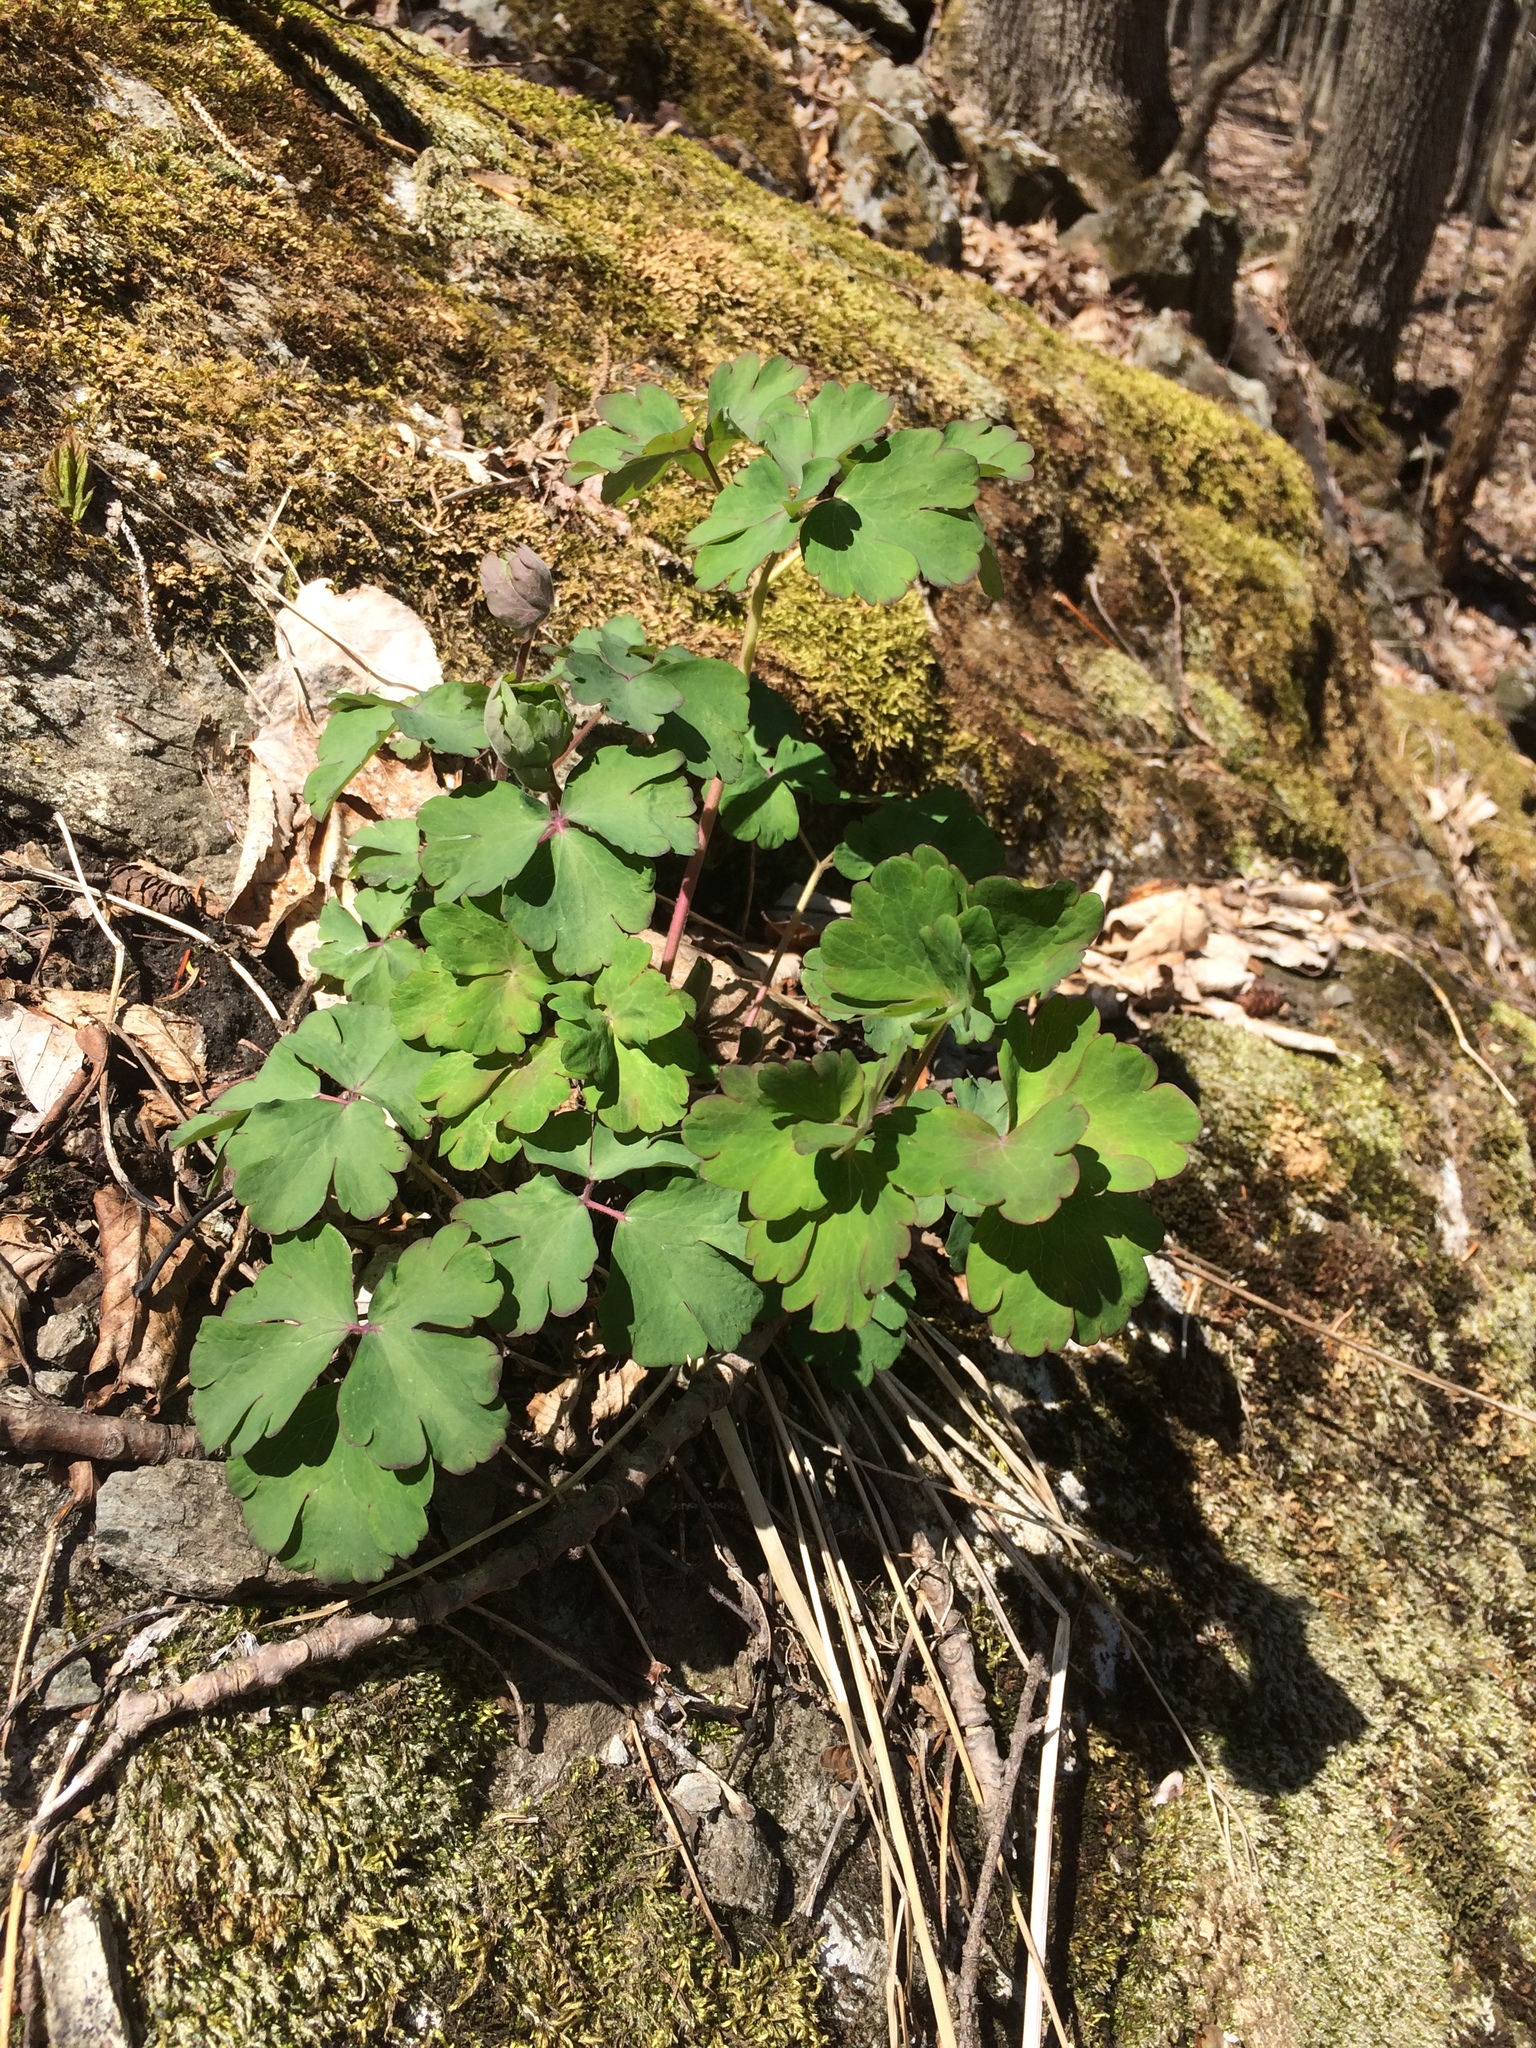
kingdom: Plantae
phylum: Tracheophyta
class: Magnoliopsida
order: Ranunculales
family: Ranunculaceae
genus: Aquilegia
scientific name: Aquilegia
